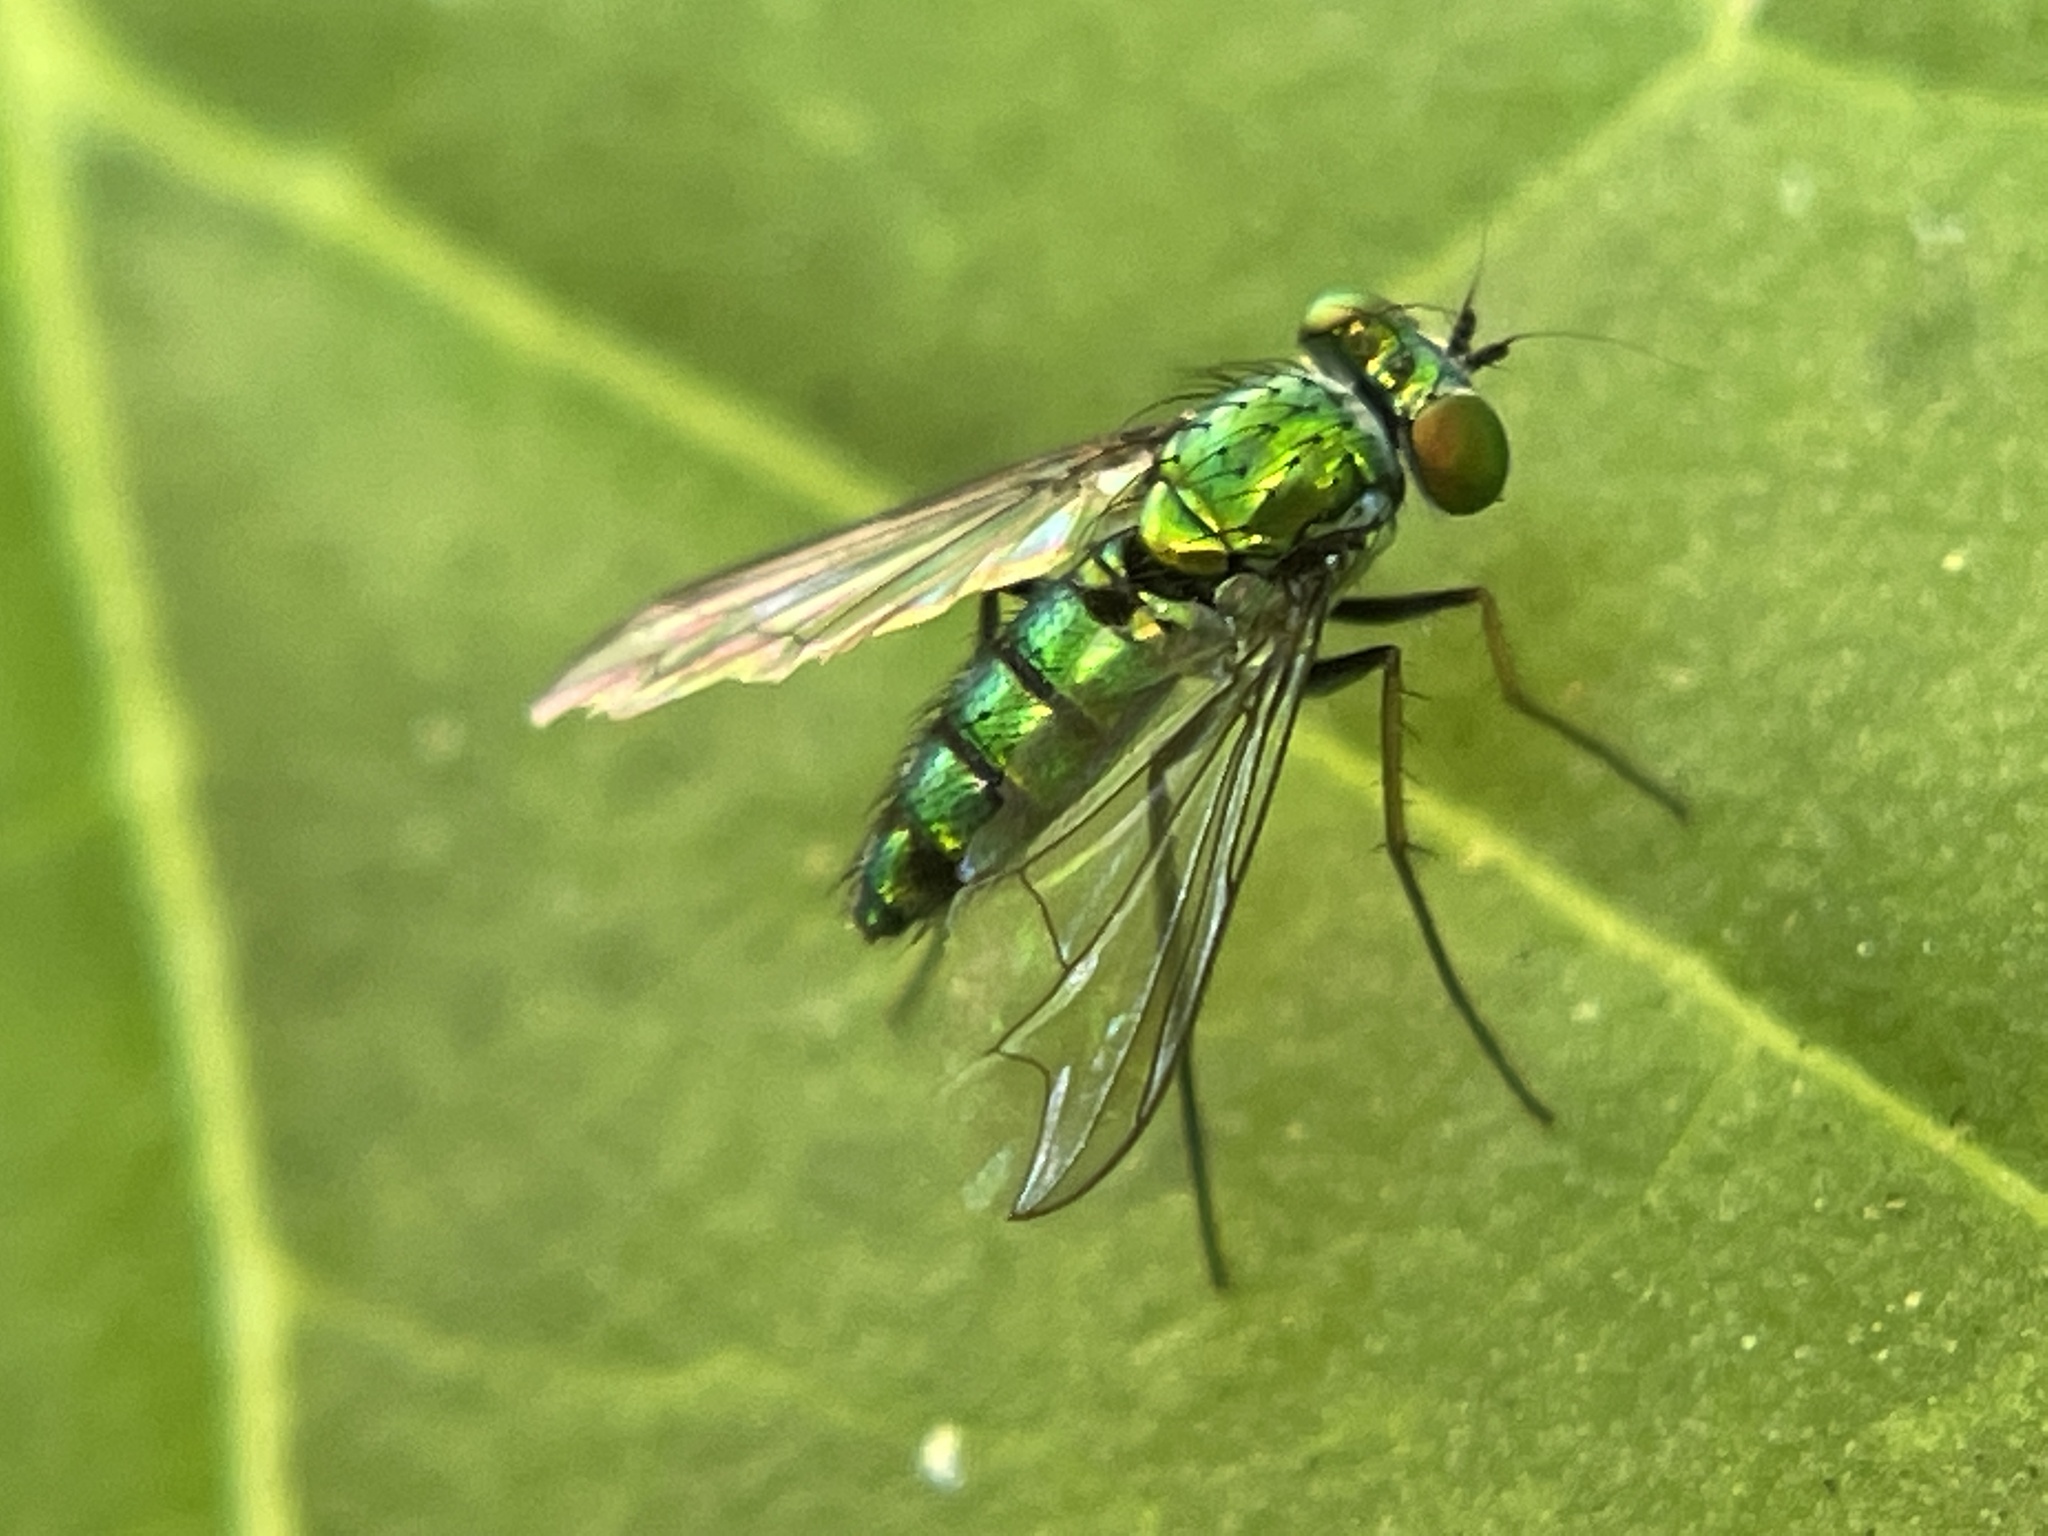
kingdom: Animalia
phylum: Arthropoda
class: Insecta
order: Diptera
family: Dolichopodidae
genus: Condylostylus
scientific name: Condylostylus longicornis
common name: Long-legged fly
